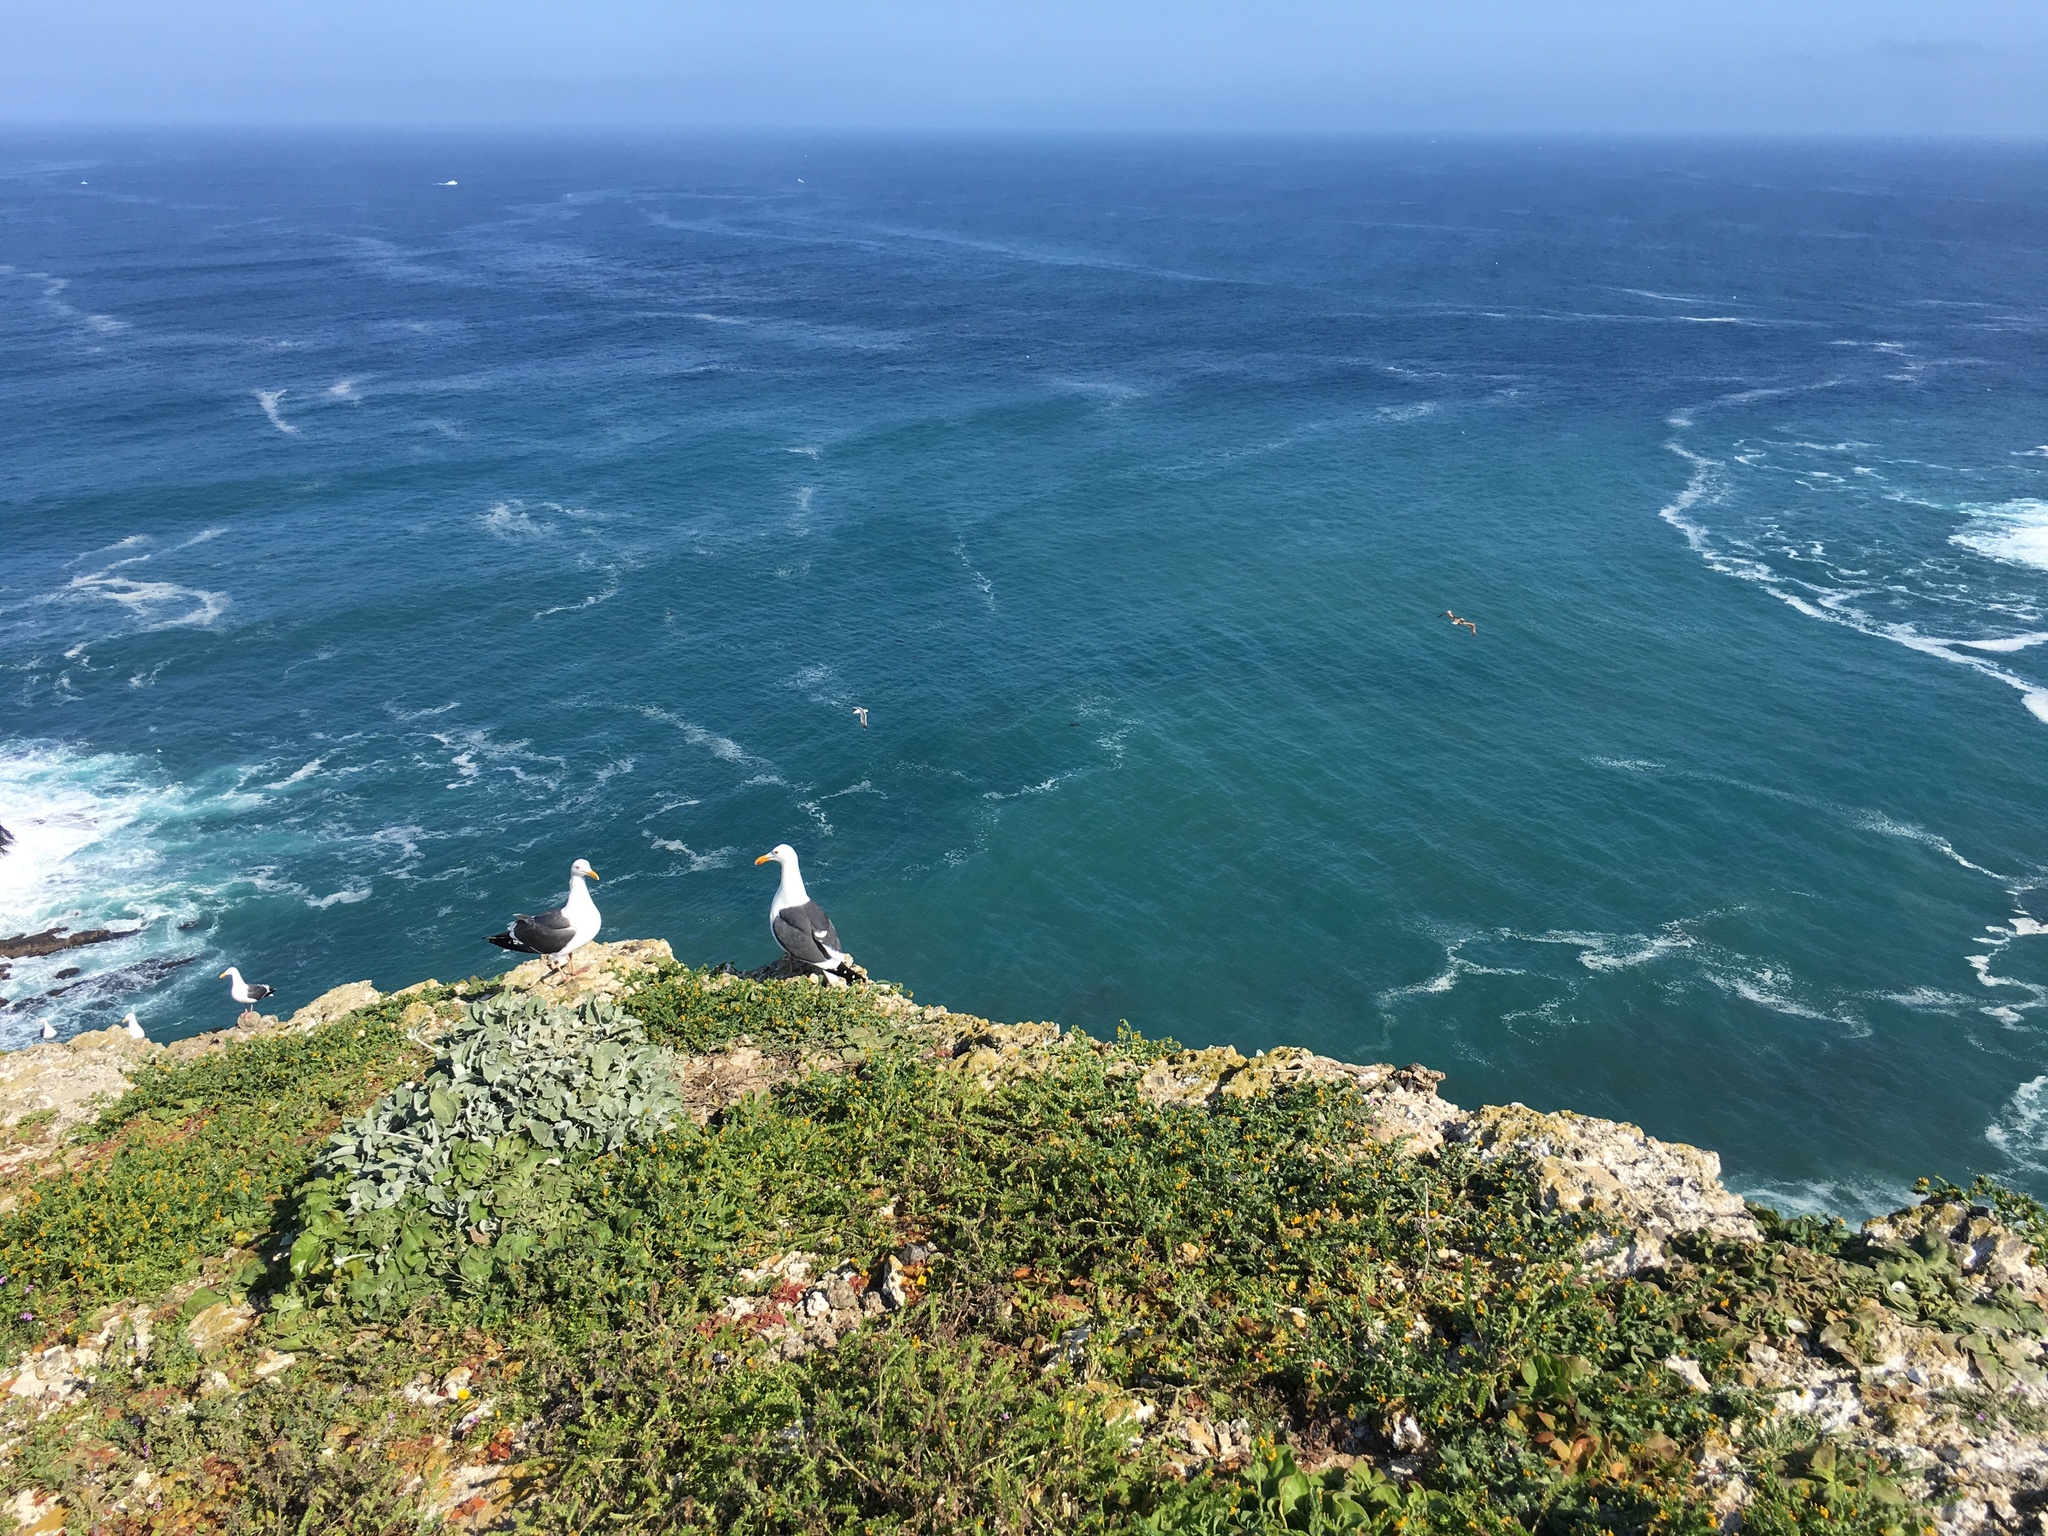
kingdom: Animalia
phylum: Chordata
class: Aves
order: Charadriiformes
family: Laridae
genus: Larus
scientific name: Larus occidentalis
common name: Western gull
